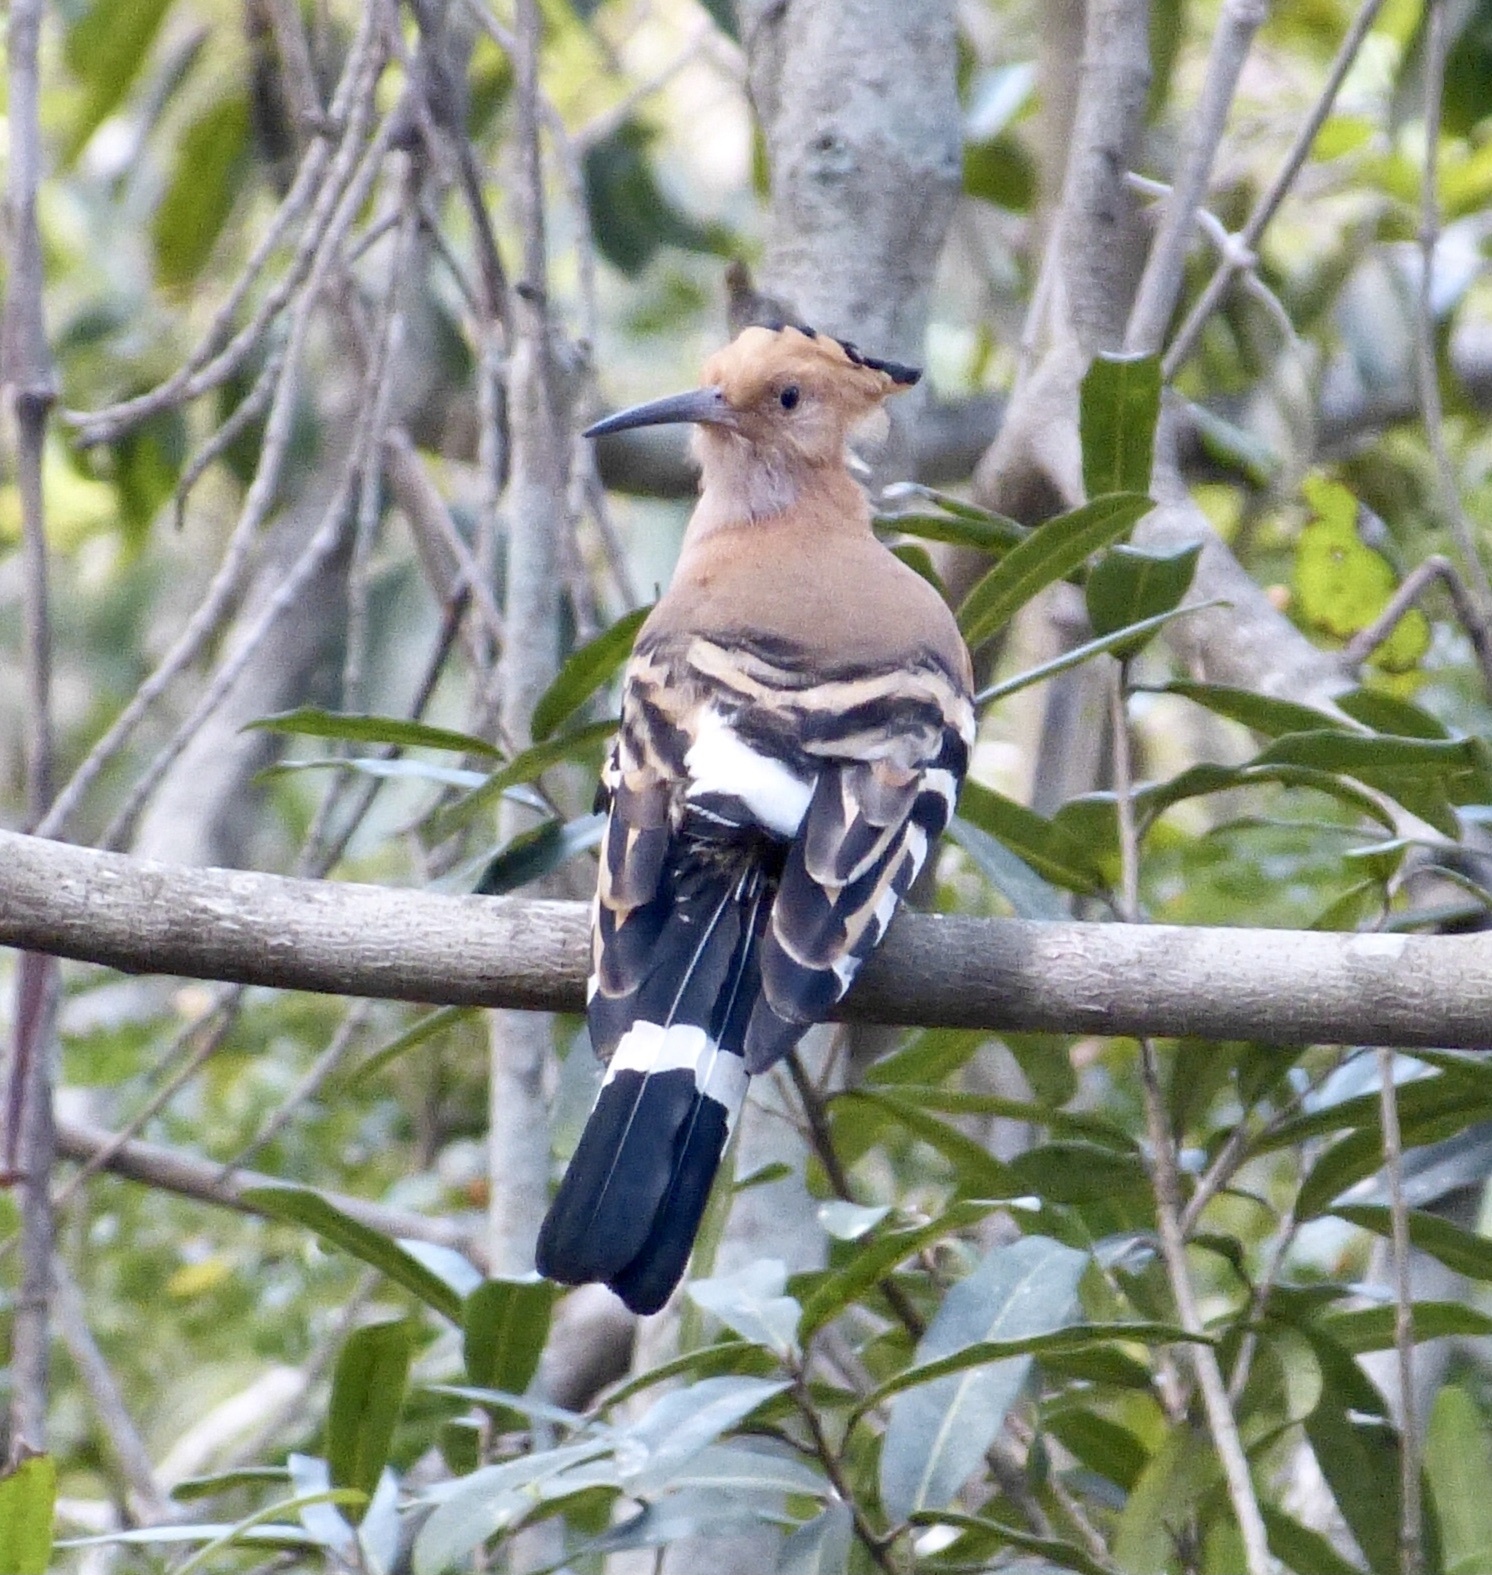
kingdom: Animalia
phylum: Chordata
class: Aves
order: Bucerotiformes
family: Upupidae
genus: Upupa
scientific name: Upupa marginata
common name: Madagascar hoopoe
